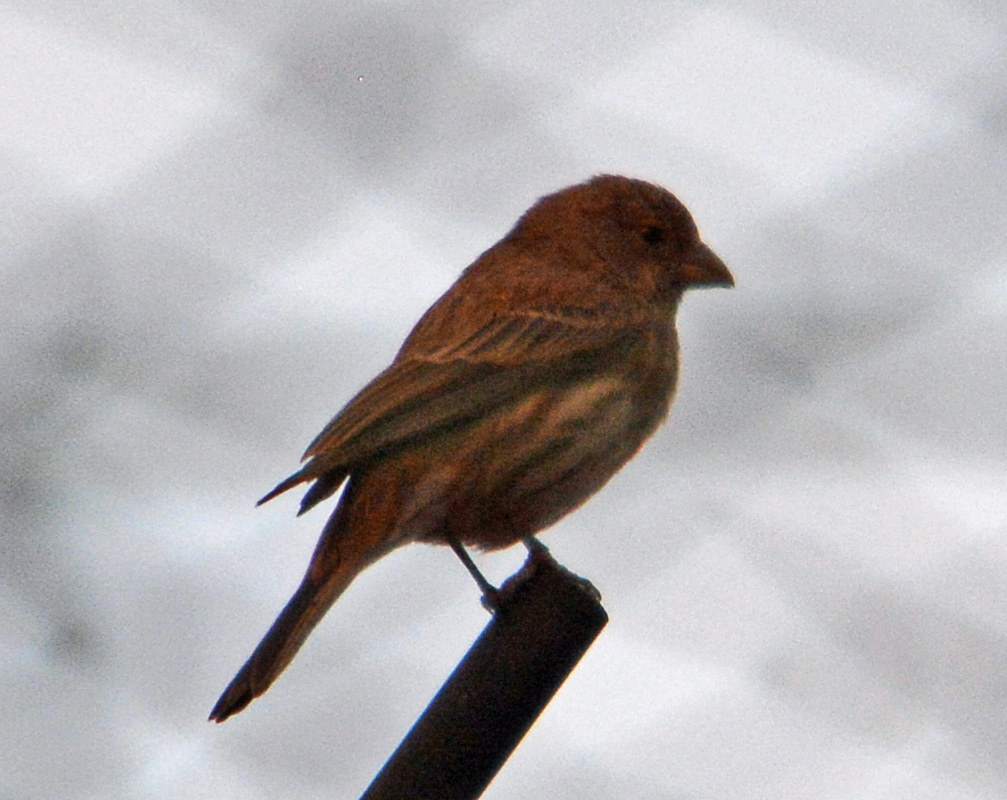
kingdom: Animalia
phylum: Chordata
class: Aves
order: Passeriformes
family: Fringillidae
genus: Haemorhous
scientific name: Haemorhous mexicanus
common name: House finch
